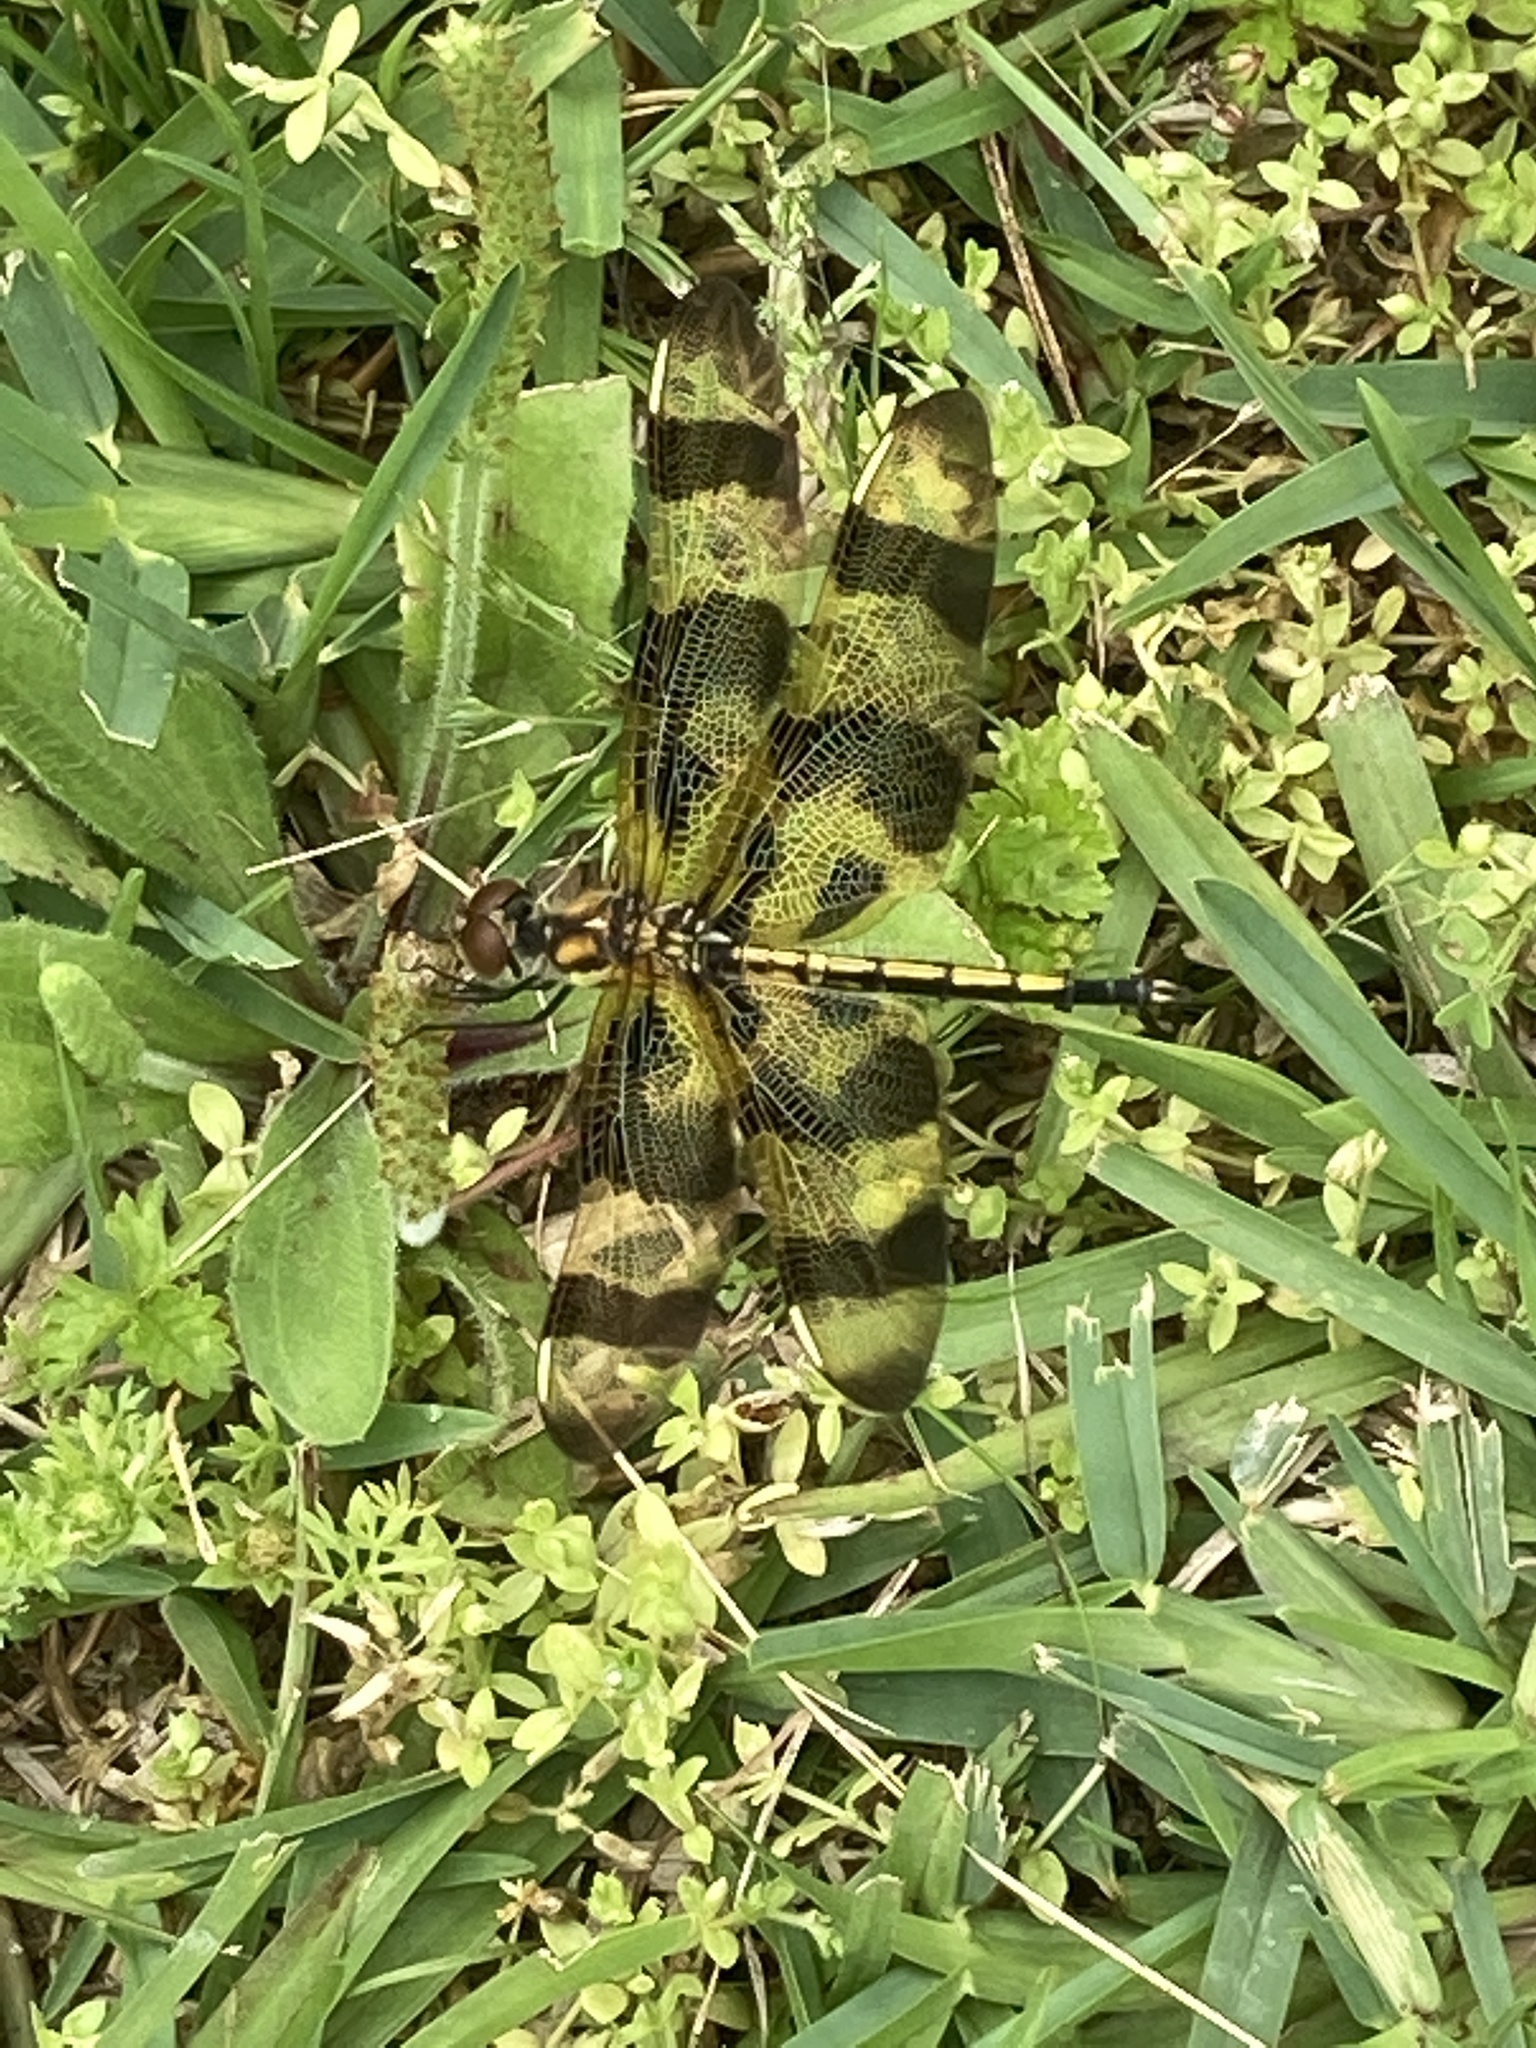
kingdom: Animalia
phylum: Arthropoda
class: Insecta
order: Odonata
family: Libellulidae
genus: Celithemis
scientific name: Celithemis eponina
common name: Halloween pennant
